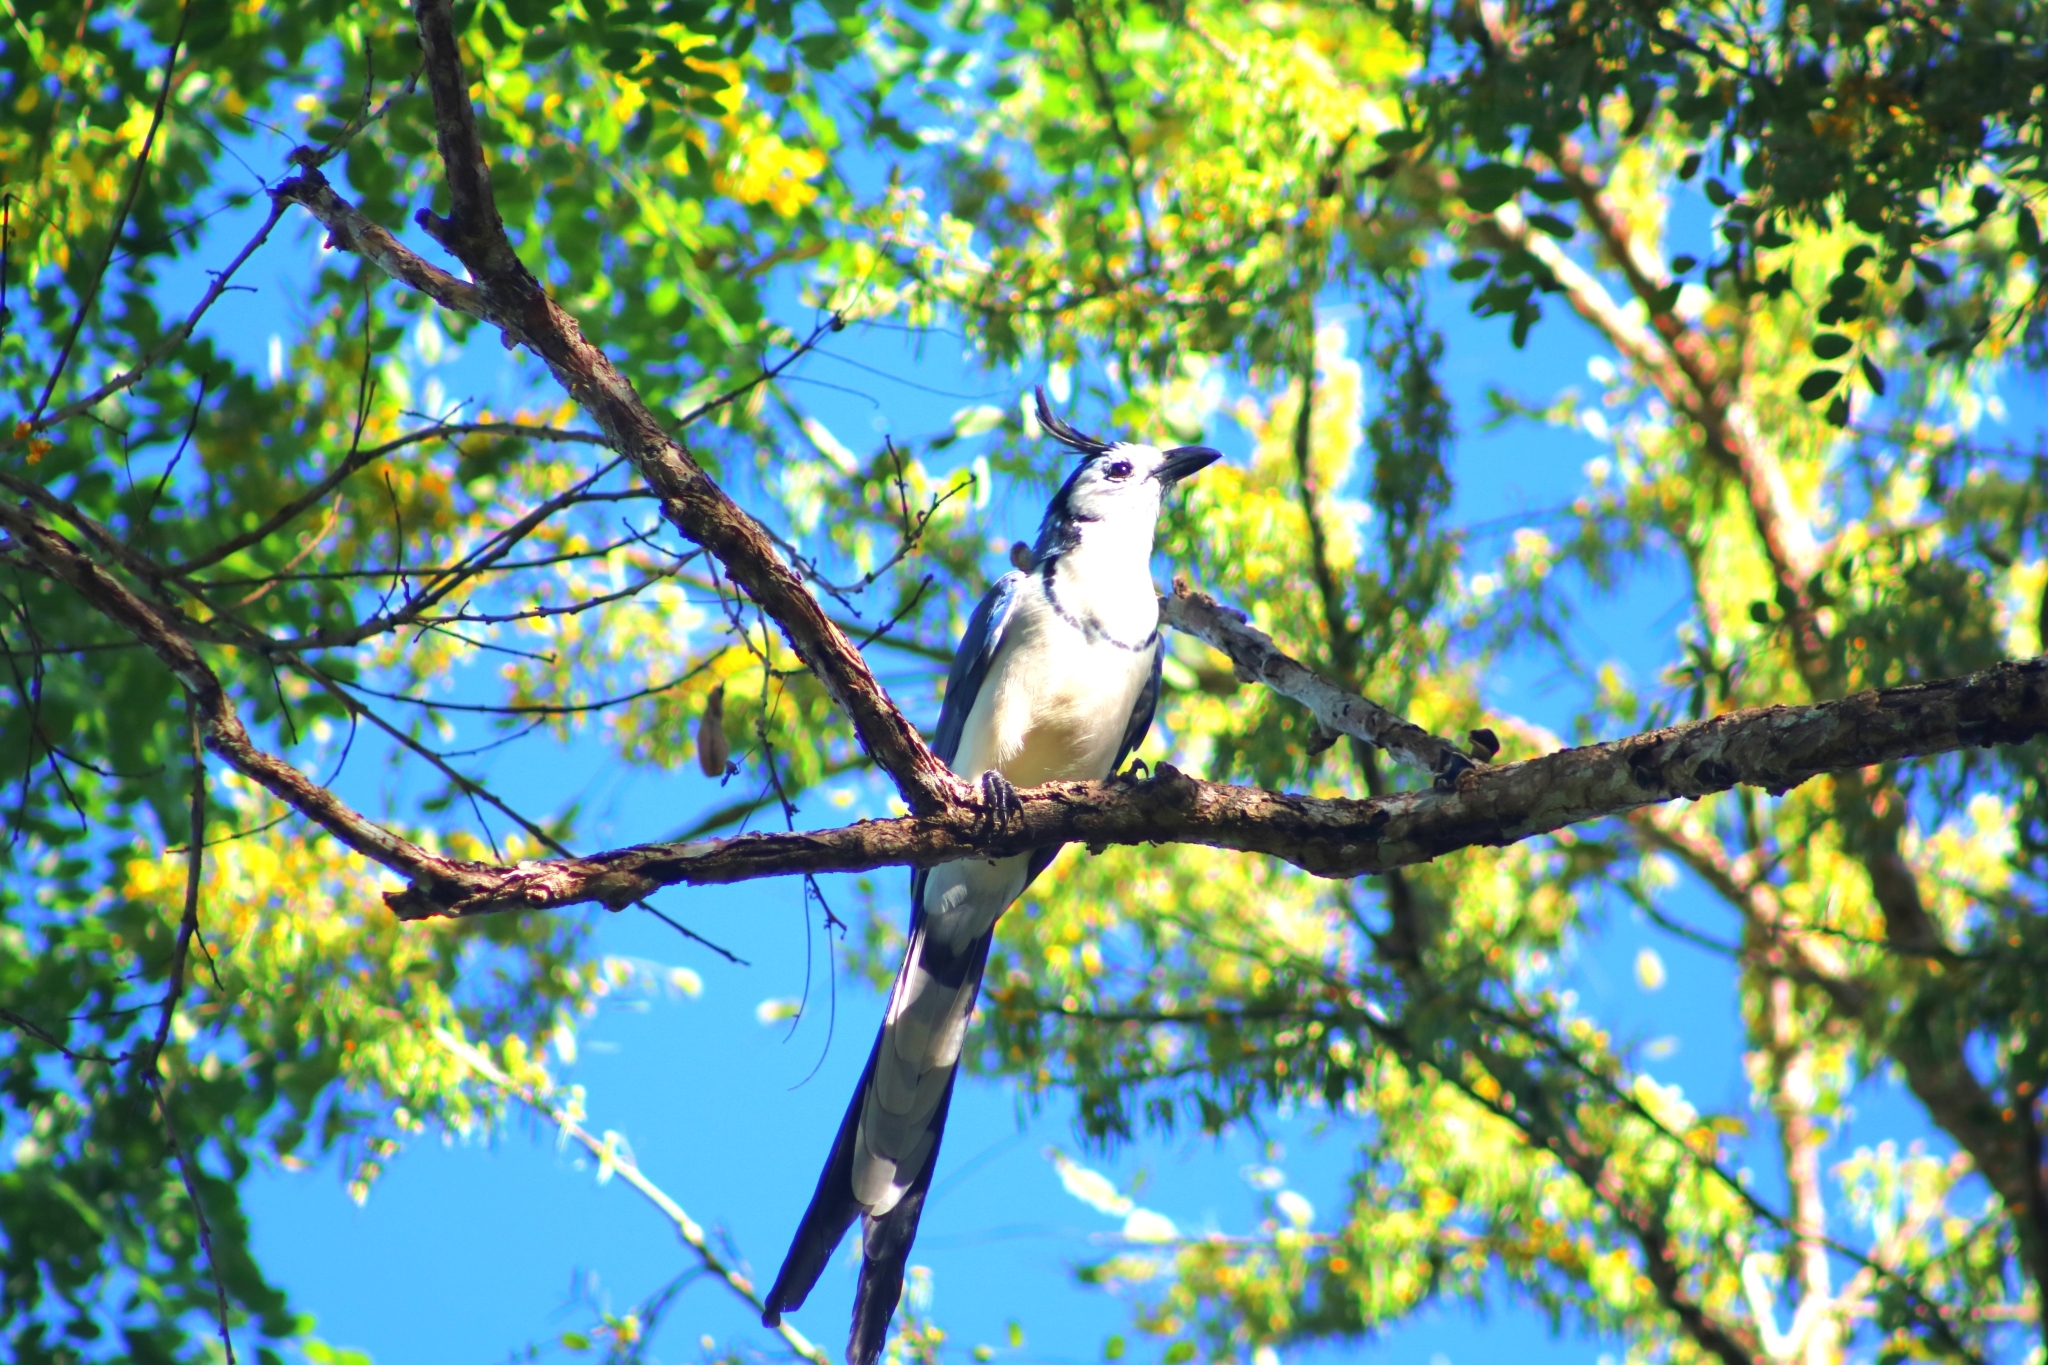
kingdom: Animalia
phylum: Chordata
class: Aves
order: Passeriformes
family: Corvidae
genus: Calocitta
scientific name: Calocitta formosa
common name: White-throated magpie-jay
